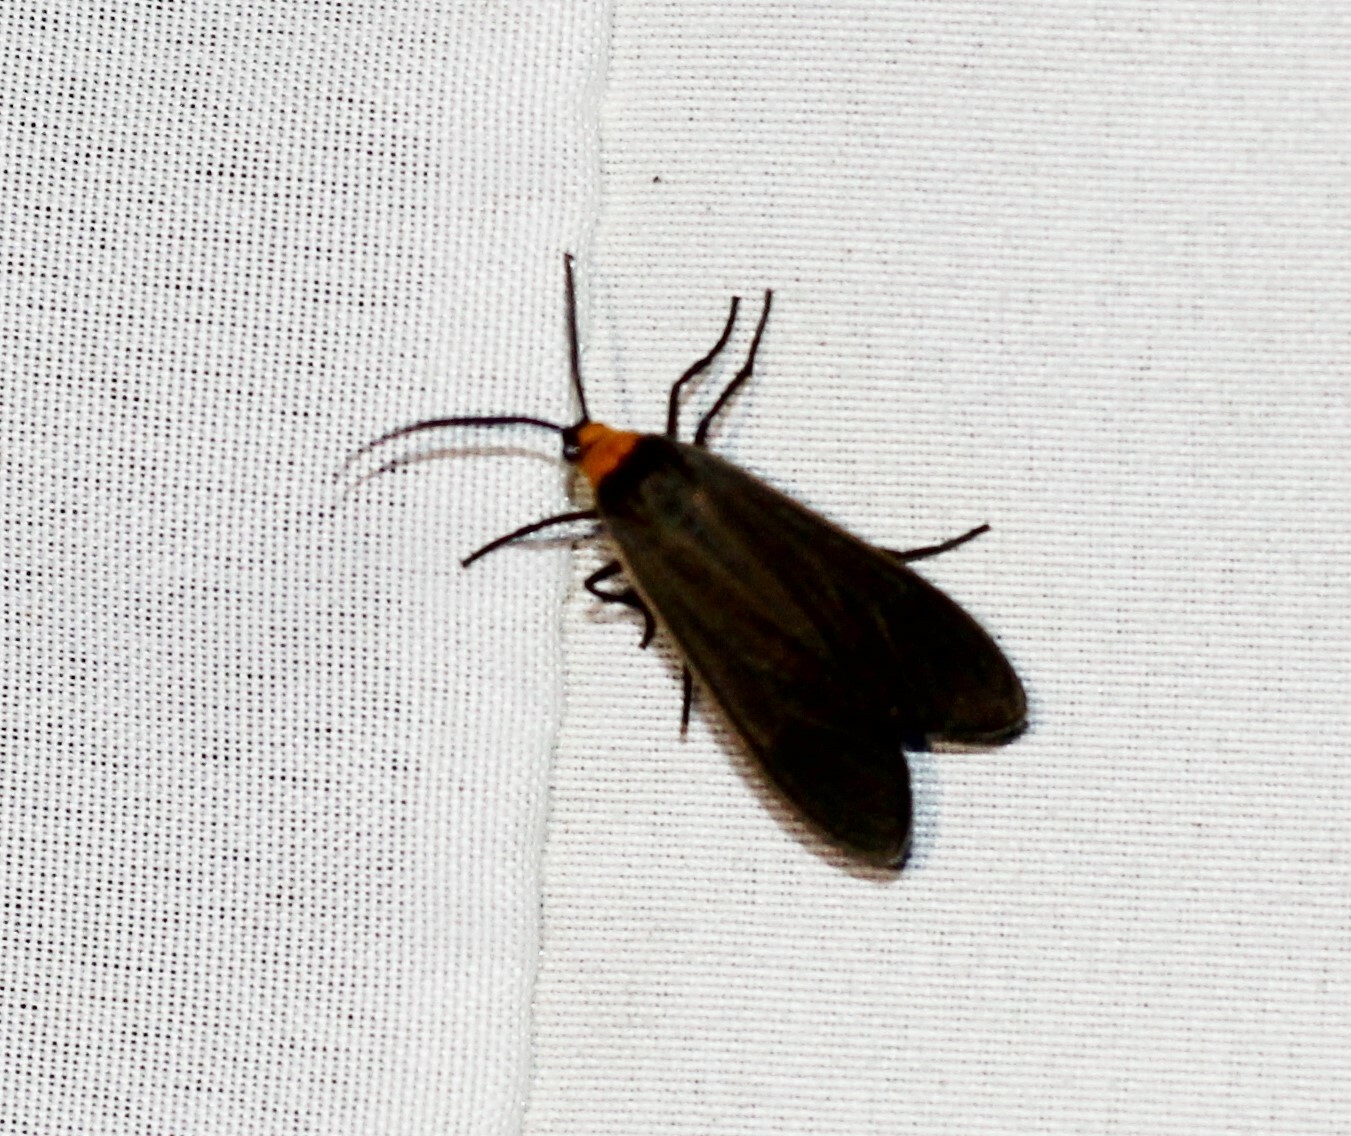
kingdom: Animalia
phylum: Arthropoda
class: Insecta
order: Lepidoptera
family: Erebidae
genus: Cisseps
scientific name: Cisseps fulvicollis
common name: Yellow-collared scape moth
